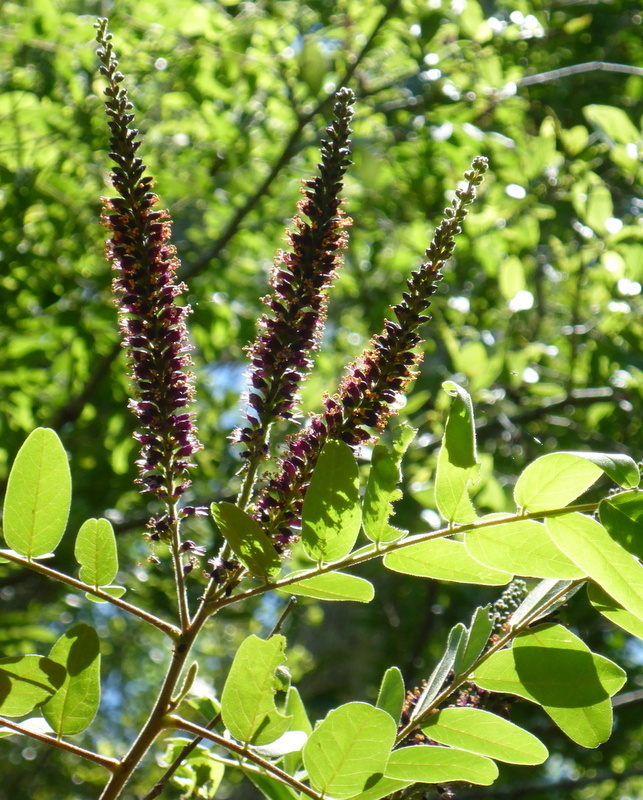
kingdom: Plantae
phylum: Tracheophyta
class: Magnoliopsida
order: Fabales
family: Fabaceae
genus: Amorpha
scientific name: Amorpha fruticosa
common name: False indigo
